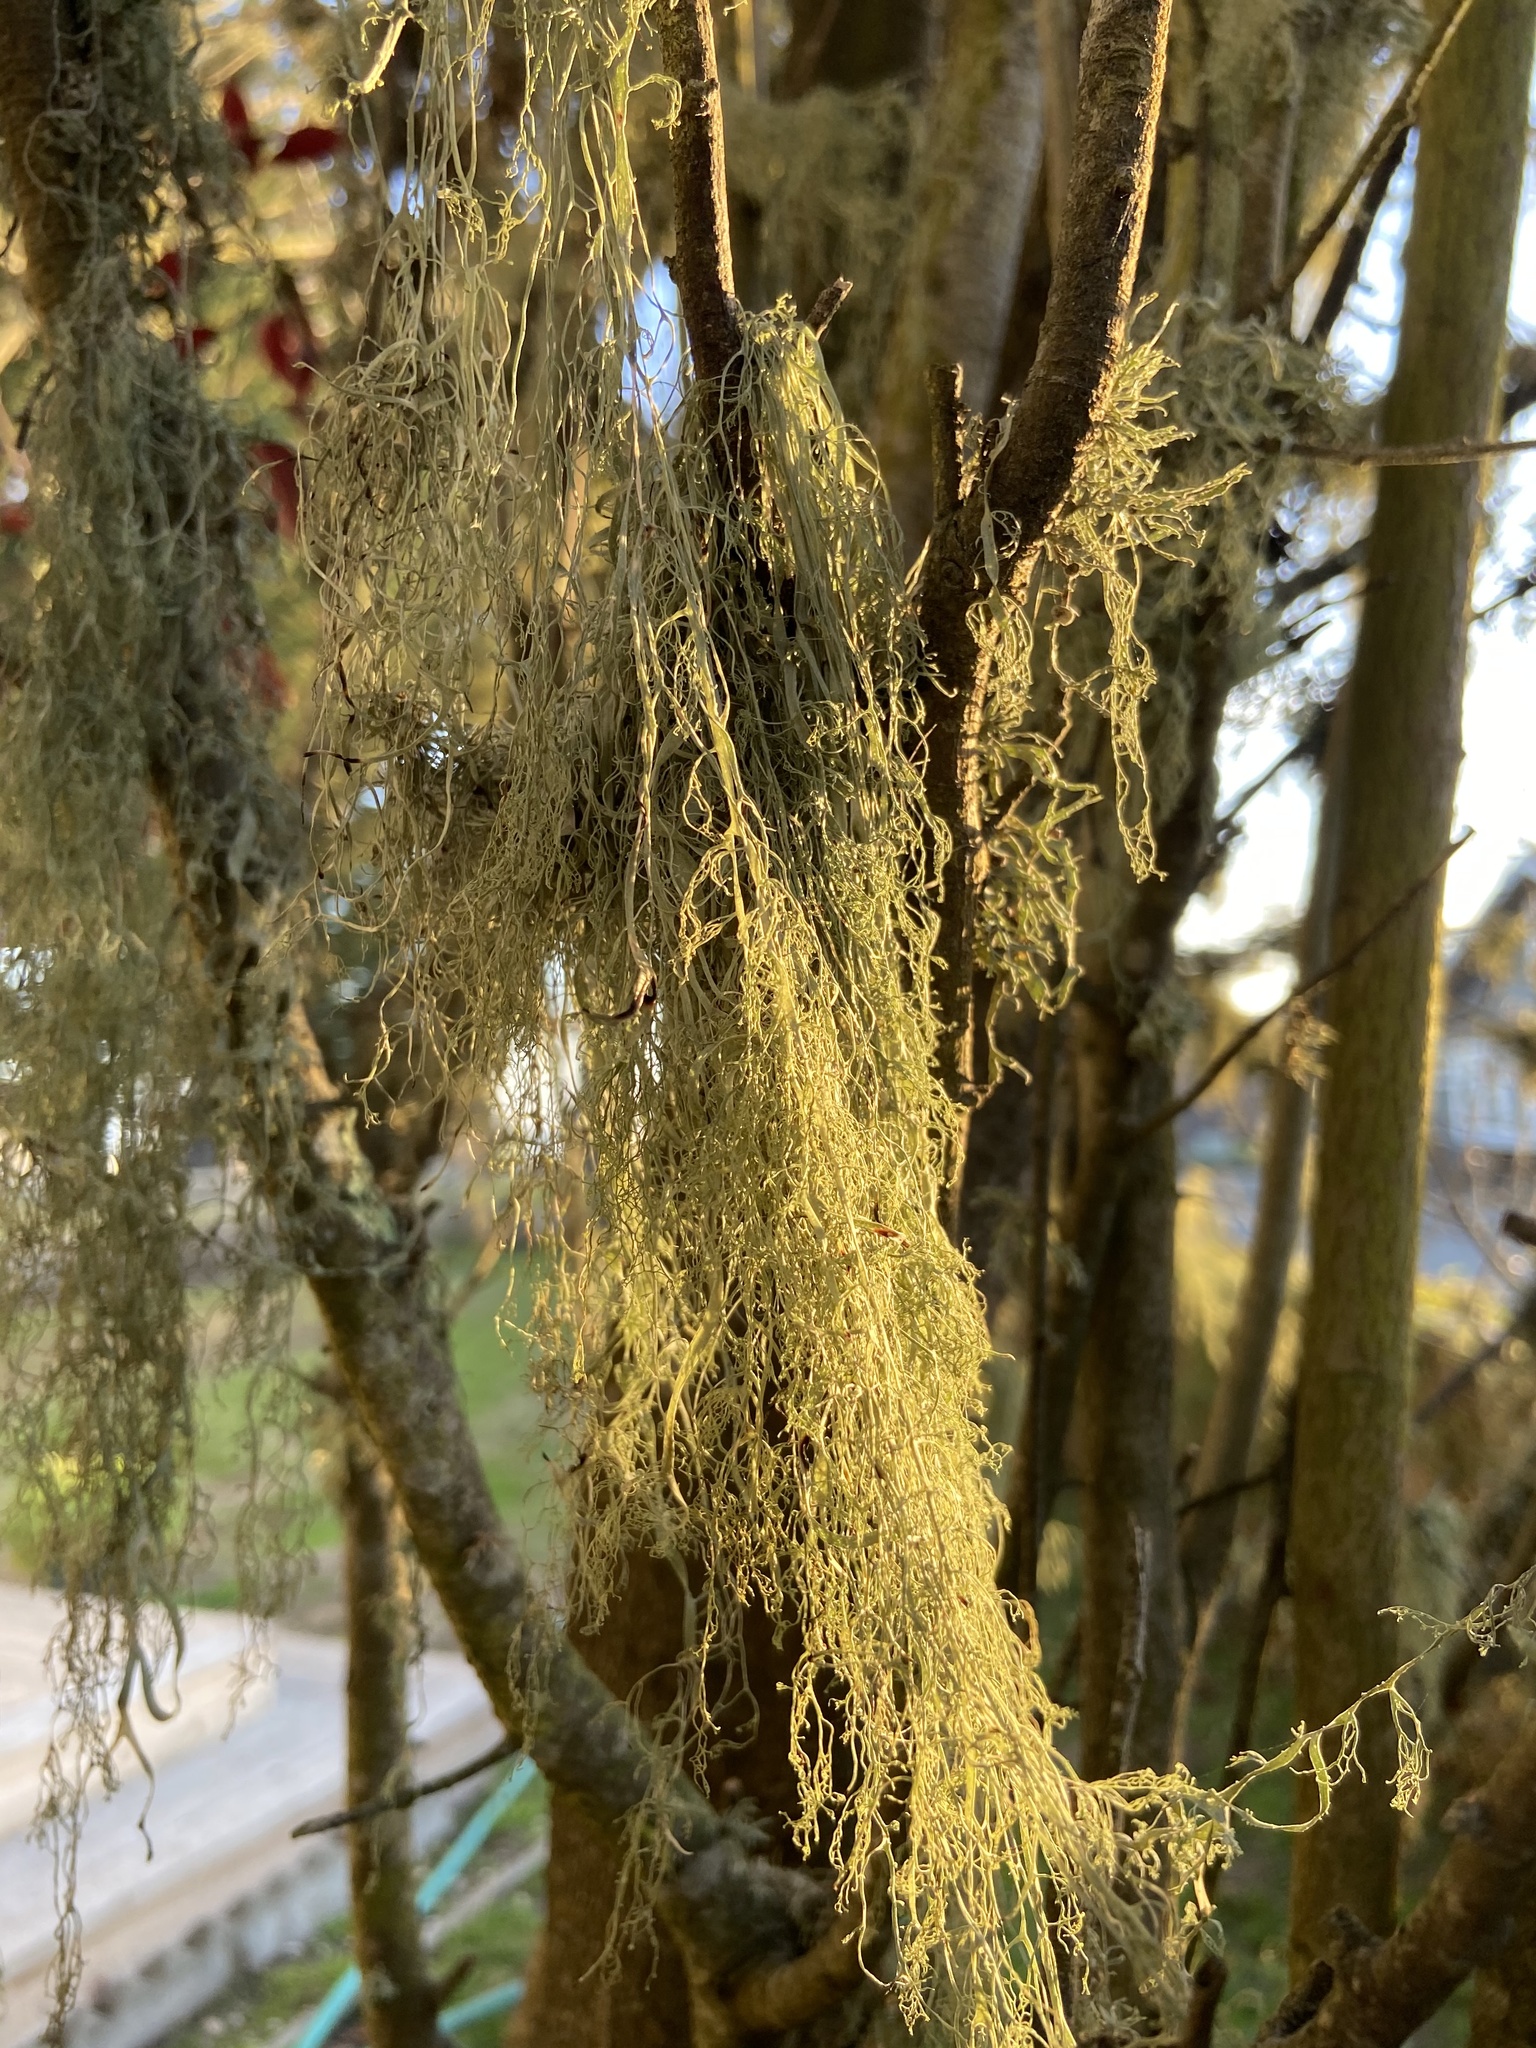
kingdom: Fungi
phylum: Ascomycota
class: Lecanoromycetes
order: Lecanorales
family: Ramalinaceae
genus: Ramalina
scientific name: Ramalina menziesii
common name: Lace lichen
